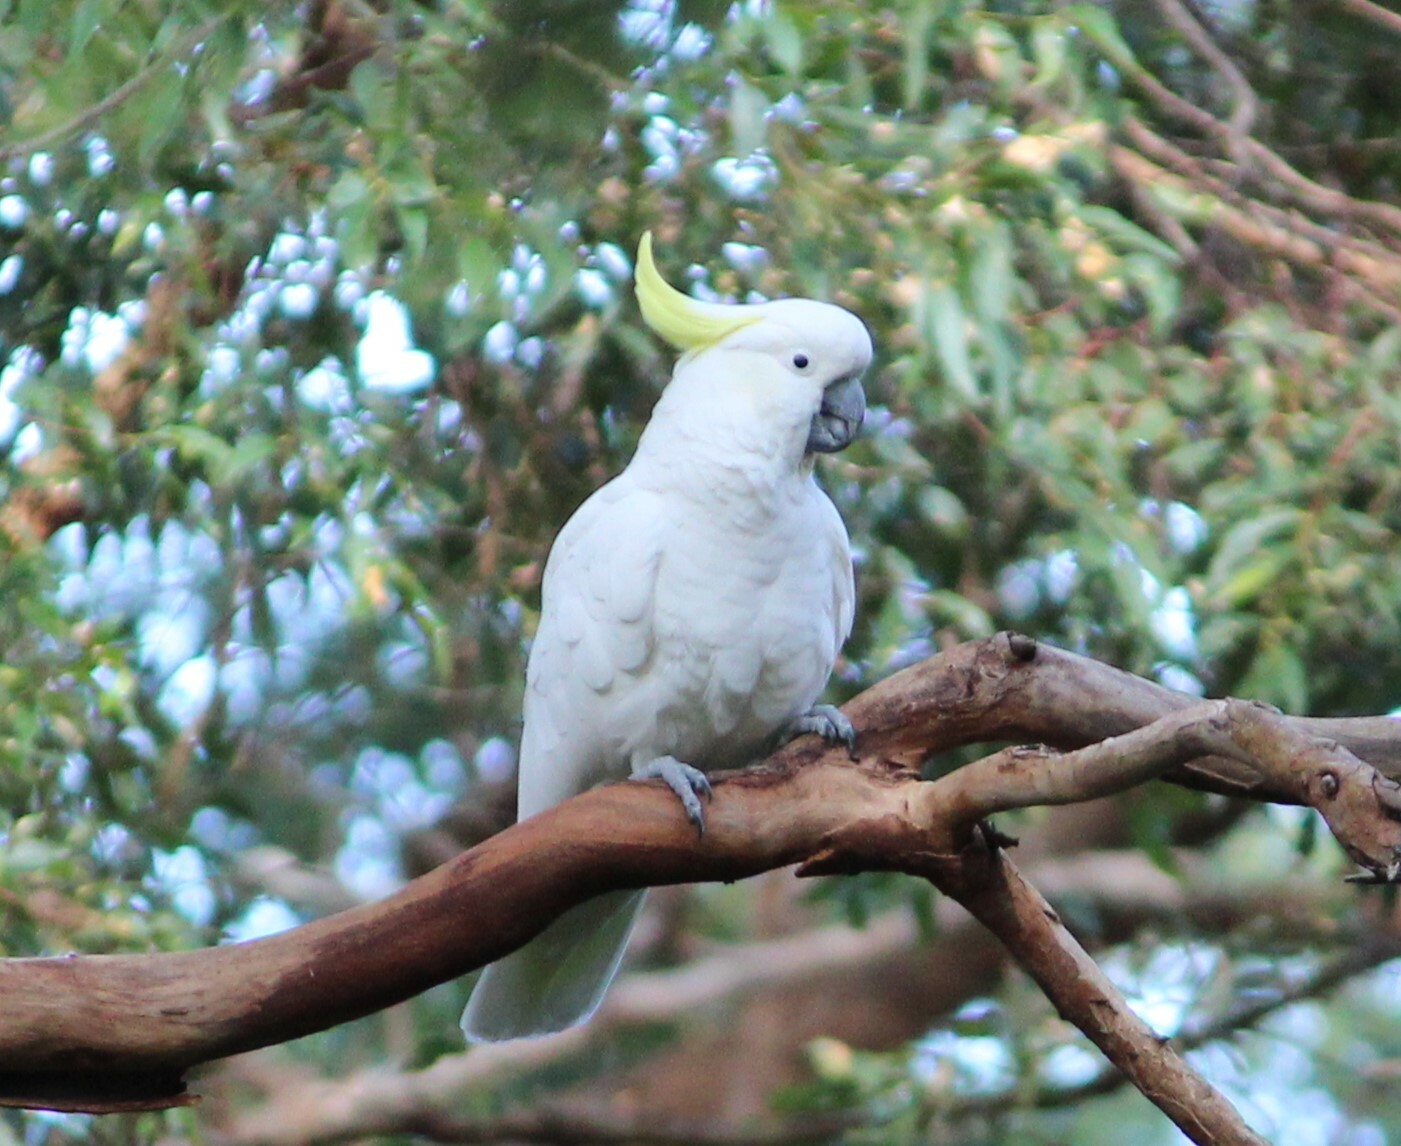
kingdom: Animalia
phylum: Chordata
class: Aves
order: Psittaciformes
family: Psittacidae
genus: Cacatua
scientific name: Cacatua galerita
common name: Sulphur-crested cockatoo
